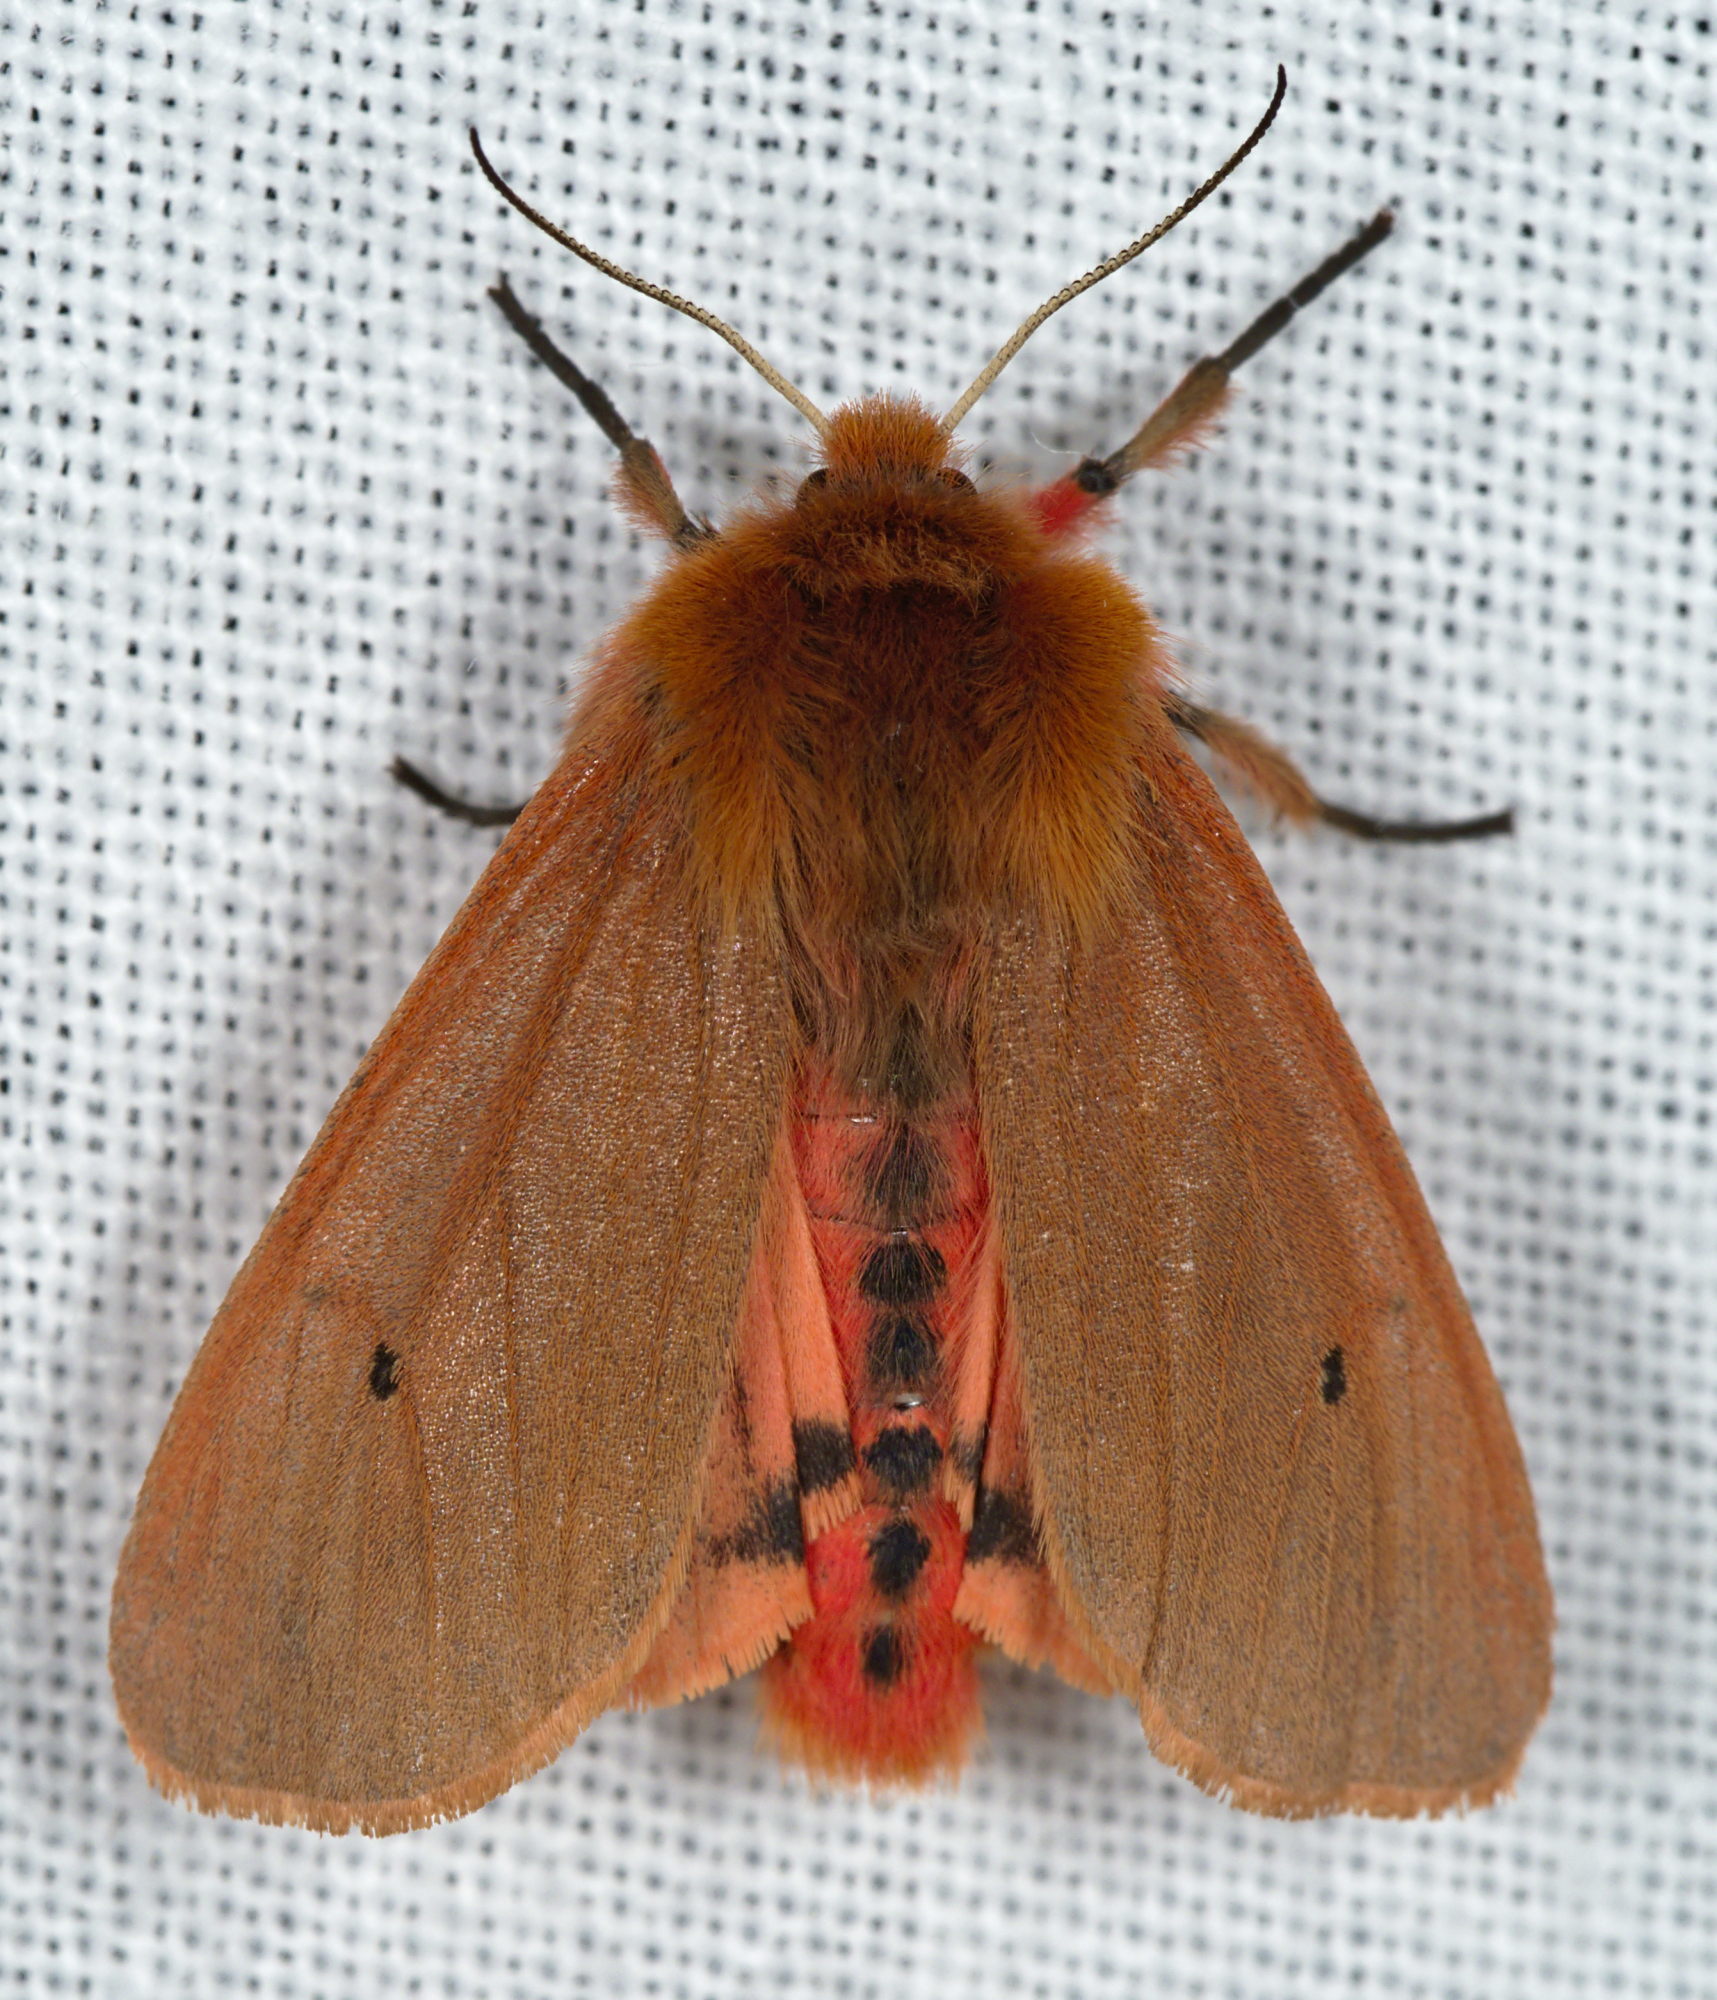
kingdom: Animalia
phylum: Arthropoda
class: Insecta
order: Lepidoptera
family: Erebidae
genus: Phragmatobia
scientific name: Phragmatobia fuliginosa
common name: Ruby tiger
